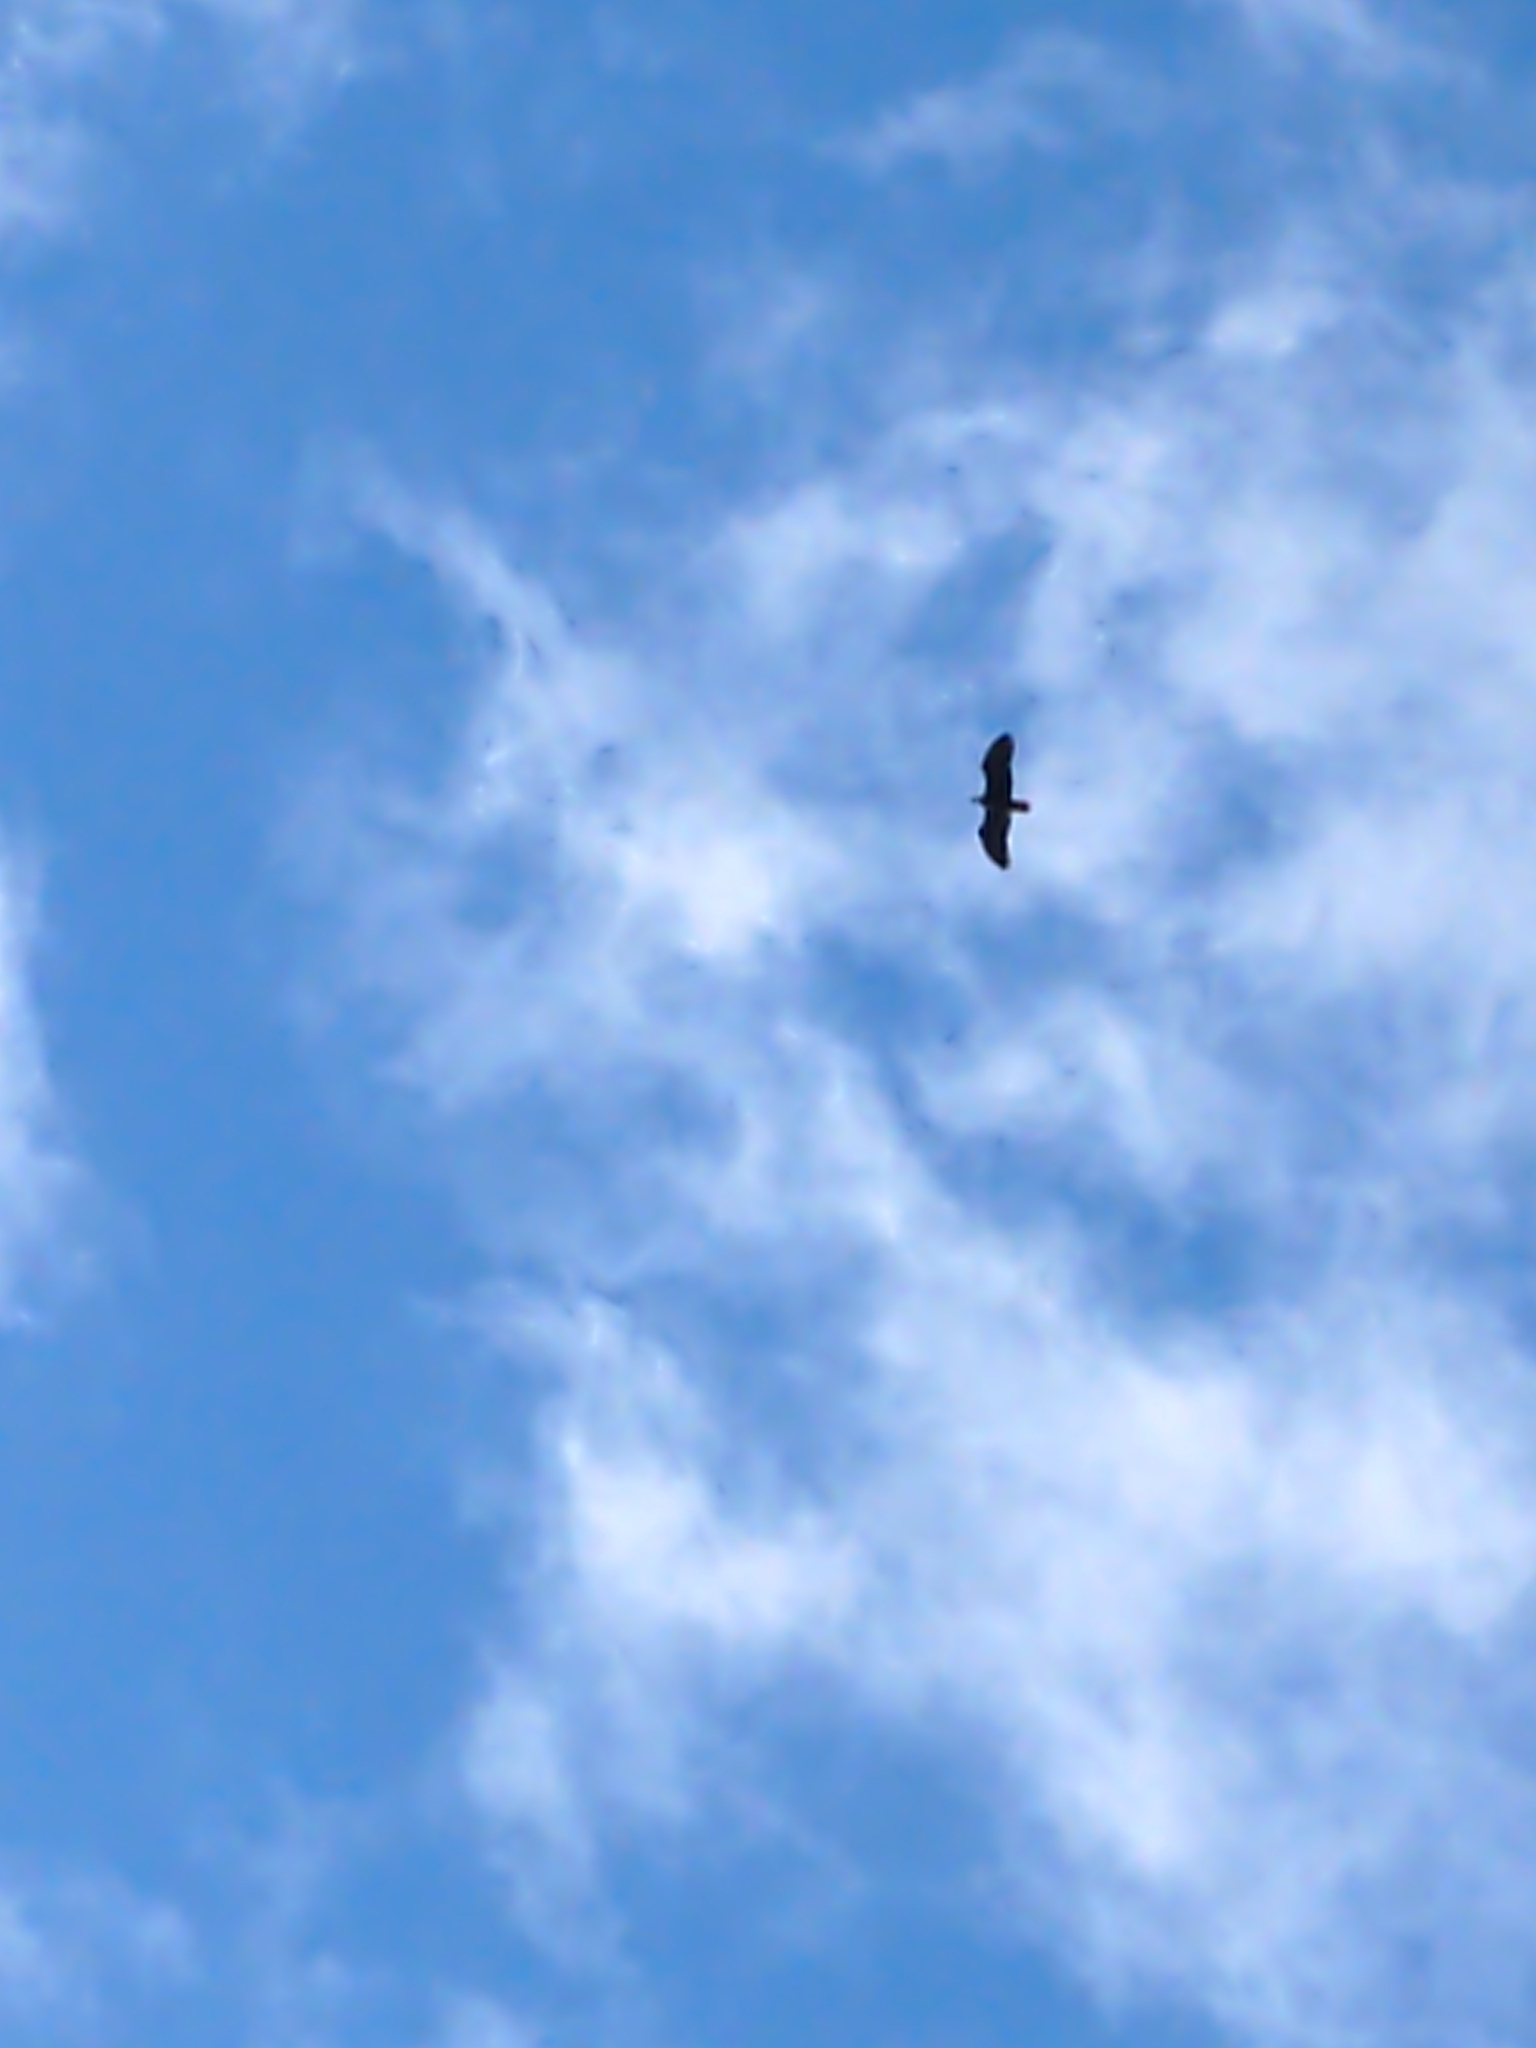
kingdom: Animalia
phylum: Chordata
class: Aves
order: Accipitriformes
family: Accipitridae
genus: Haliaeetus
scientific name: Haliaeetus leucocephalus
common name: Bald eagle
